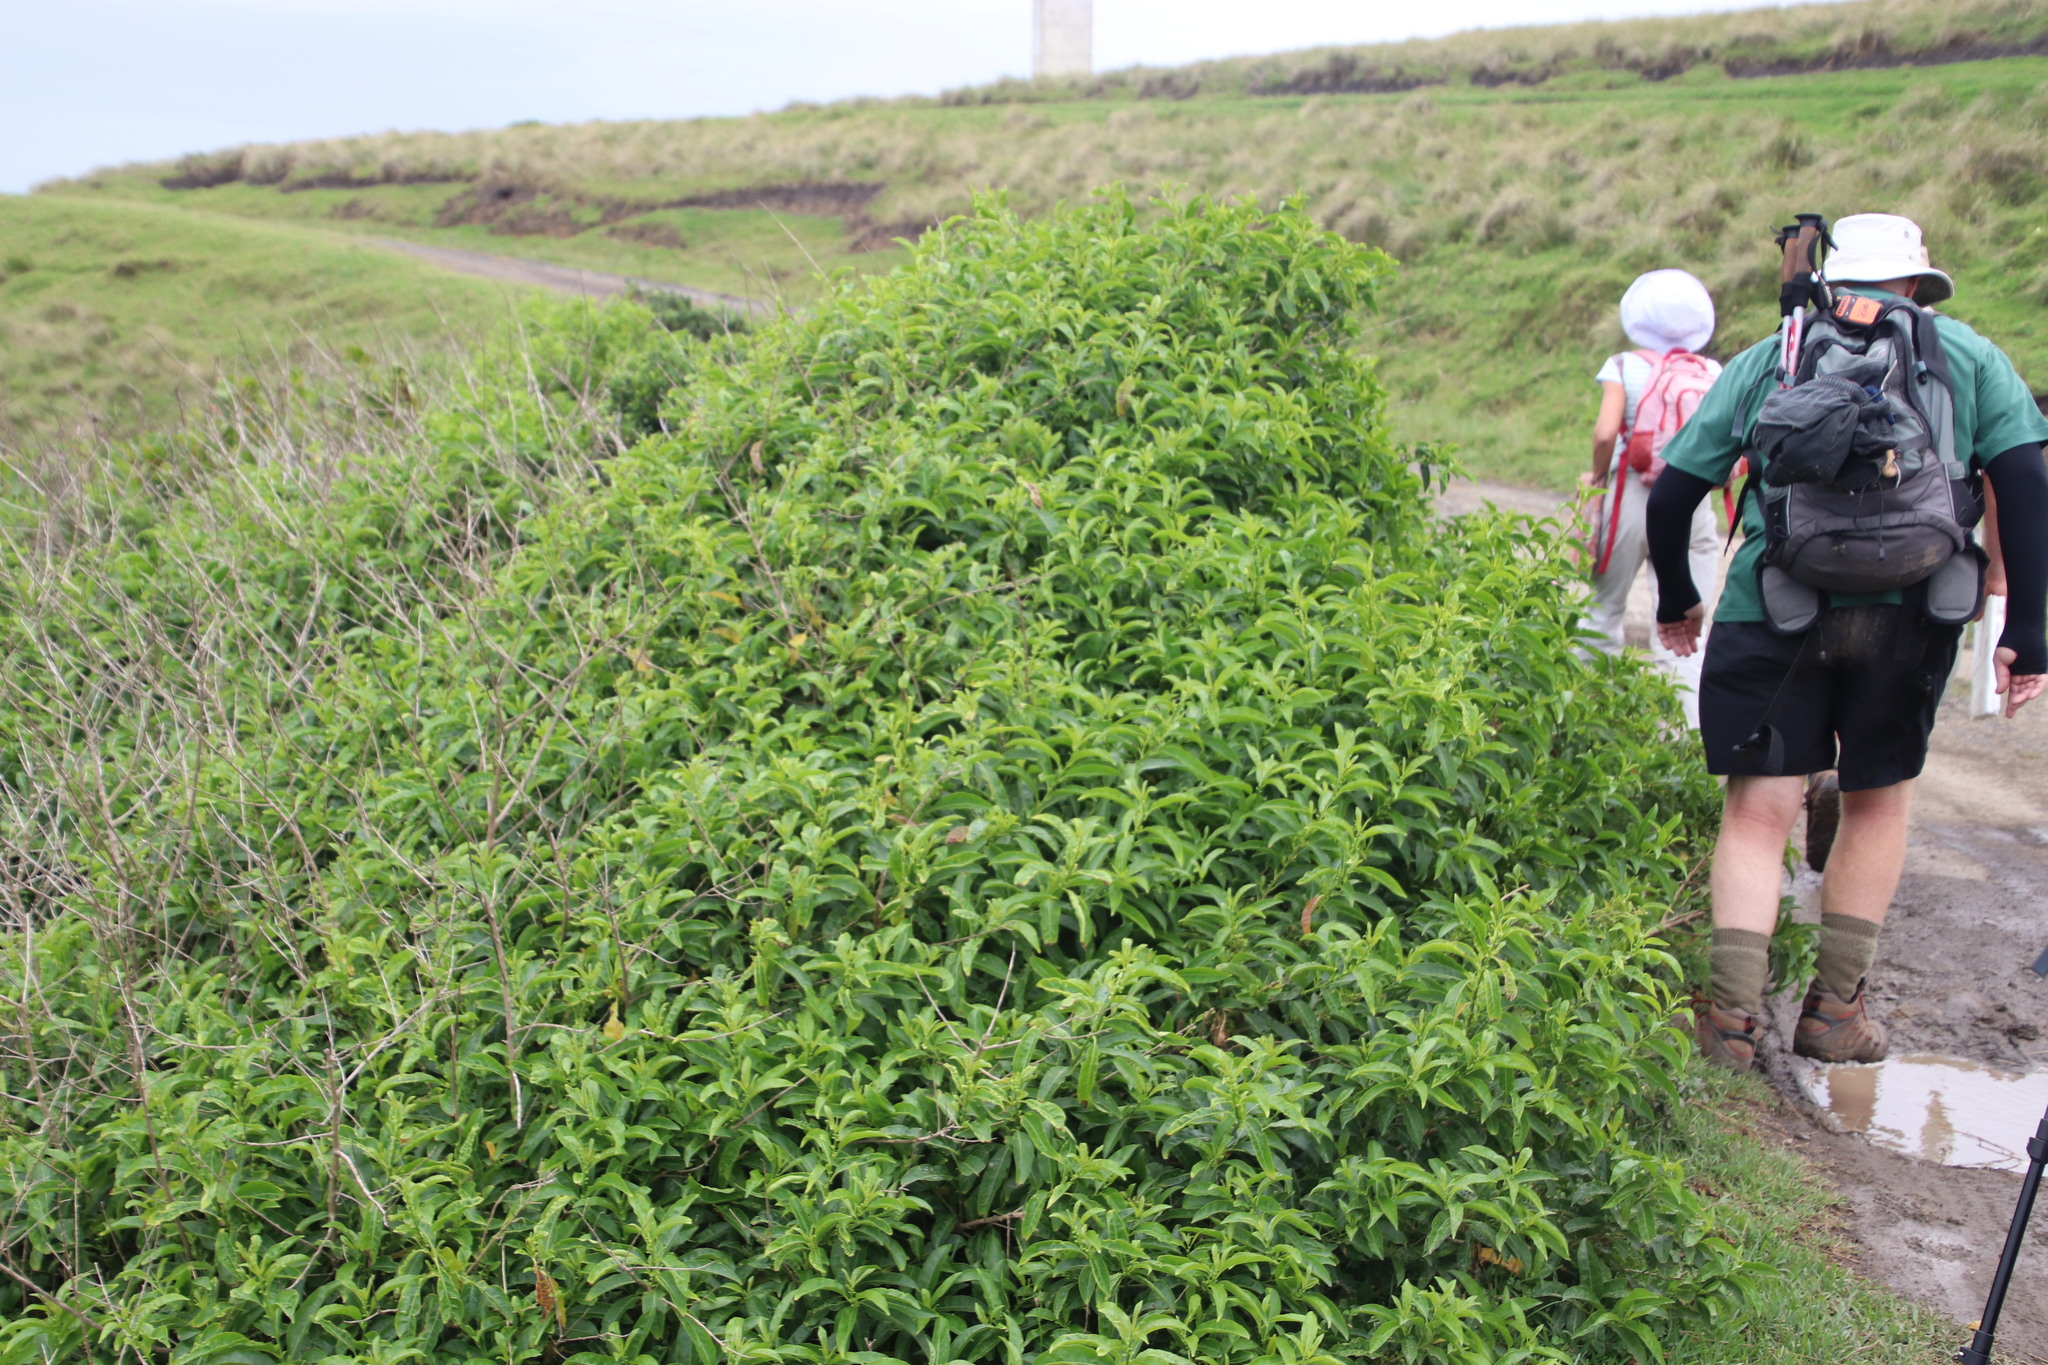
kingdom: Plantae
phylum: Tracheophyta
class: Magnoliopsida
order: Solanales
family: Solanaceae
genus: Cestrum
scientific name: Cestrum laevigatum
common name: Inkberry
